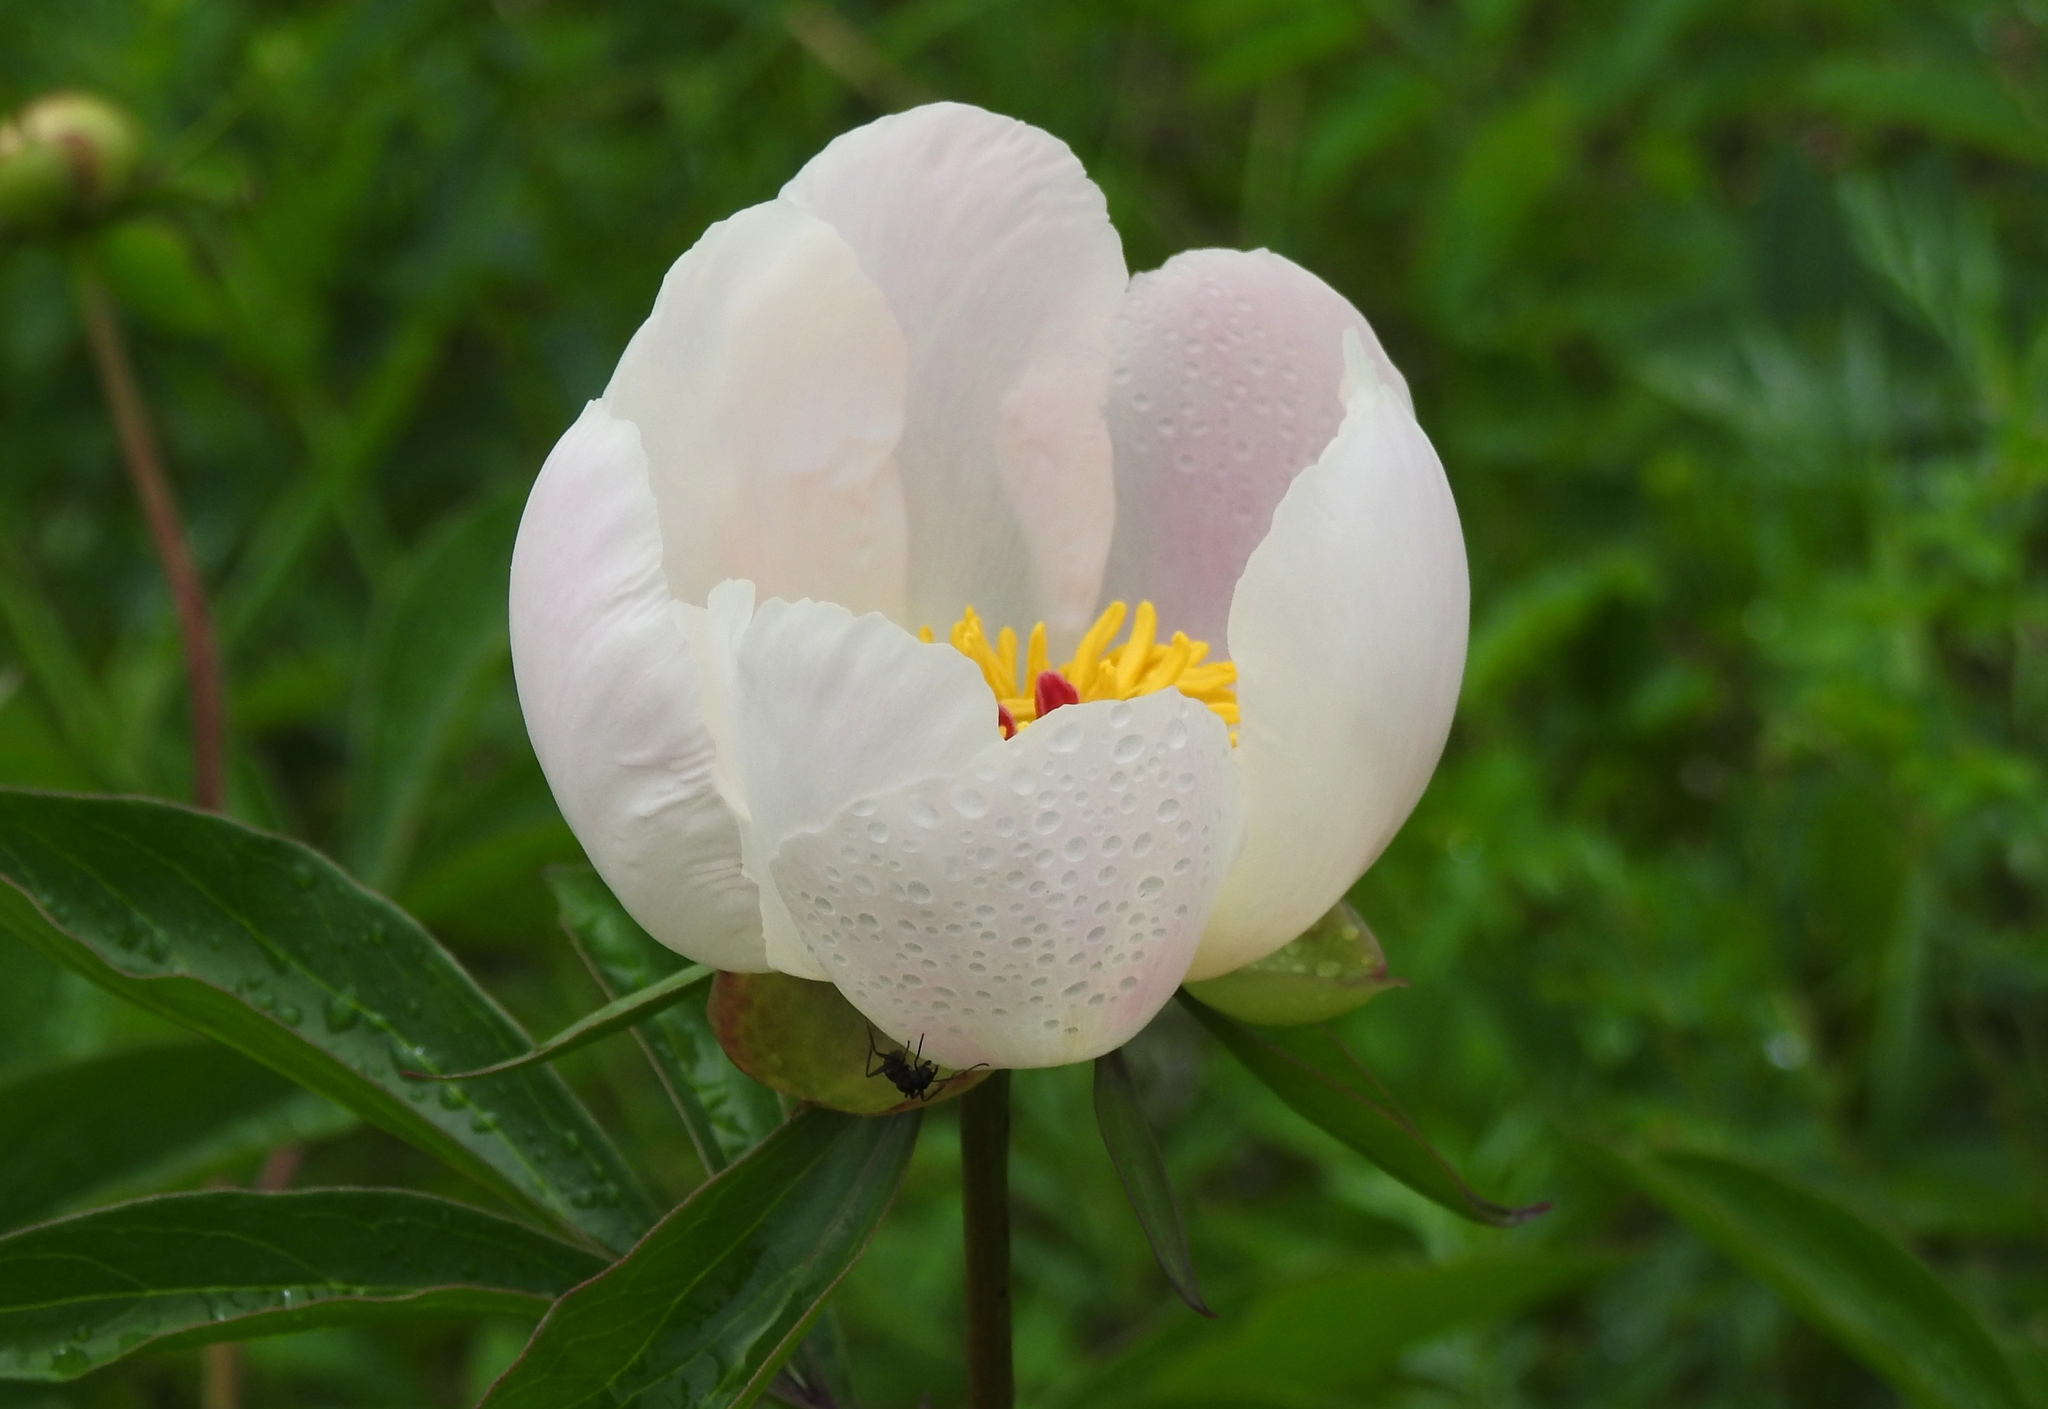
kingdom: Plantae
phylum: Tracheophyta
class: Magnoliopsida
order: Saxifragales
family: Paeoniaceae
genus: Paeonia
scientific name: Paeonia lactiflora
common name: Chinese peony
